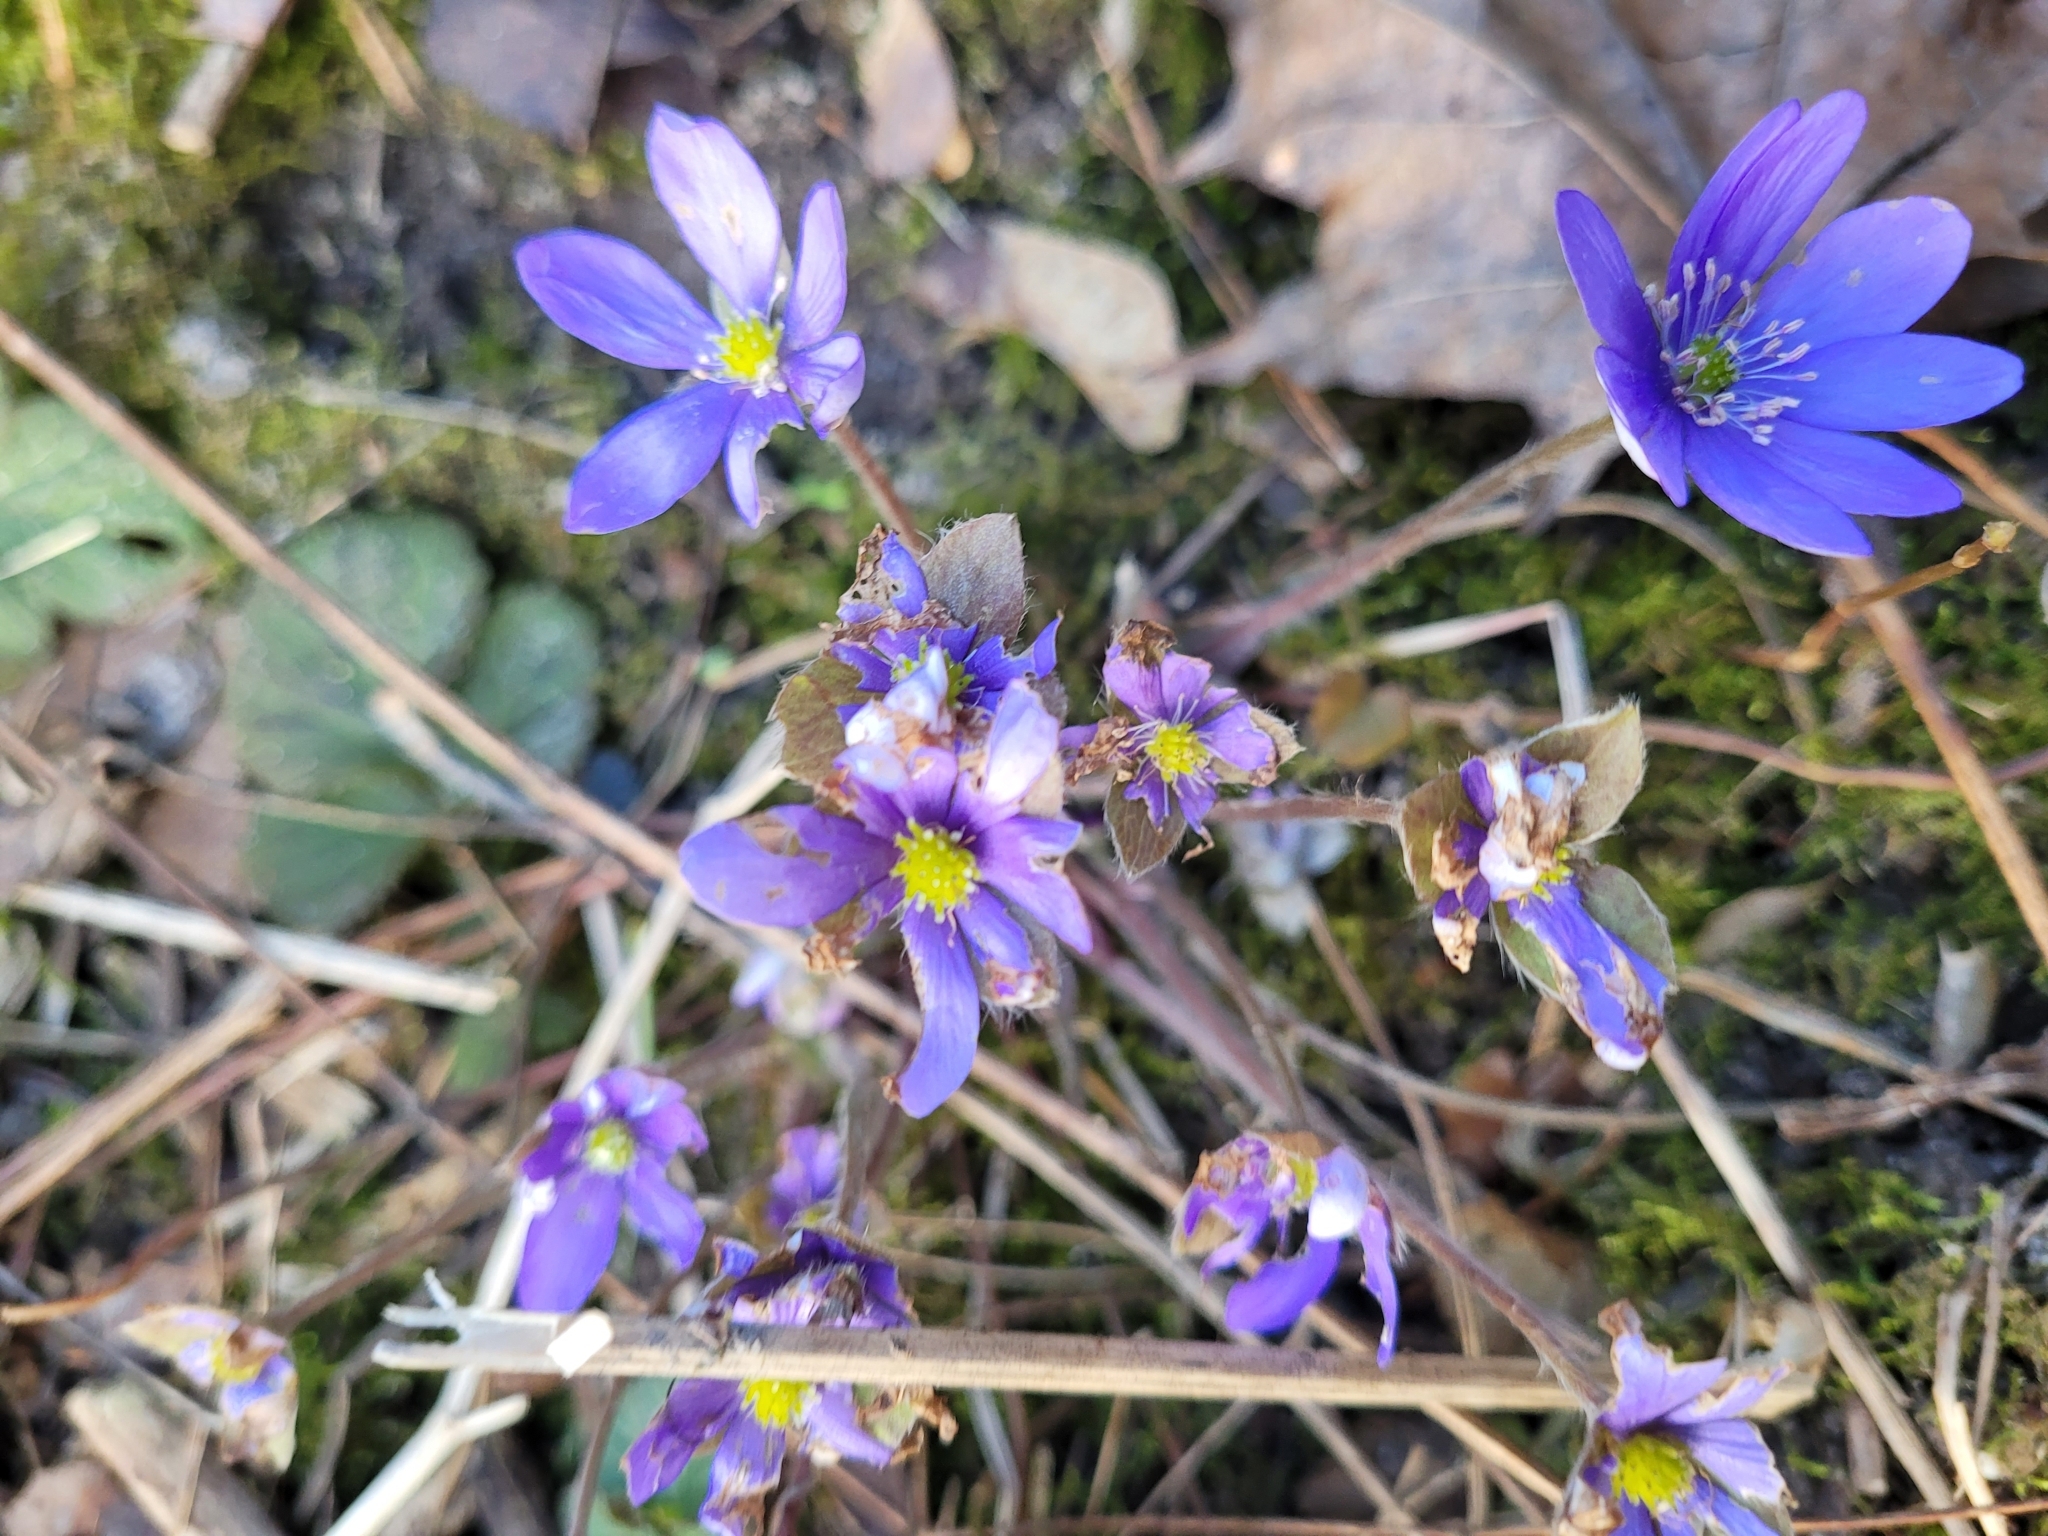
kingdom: Plantae
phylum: Tracheophyta
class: Magnoliopsida
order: Ranunculales
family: Ranunculaceae
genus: Hepatica
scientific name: Hepatica nobilis
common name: Liverleaf
